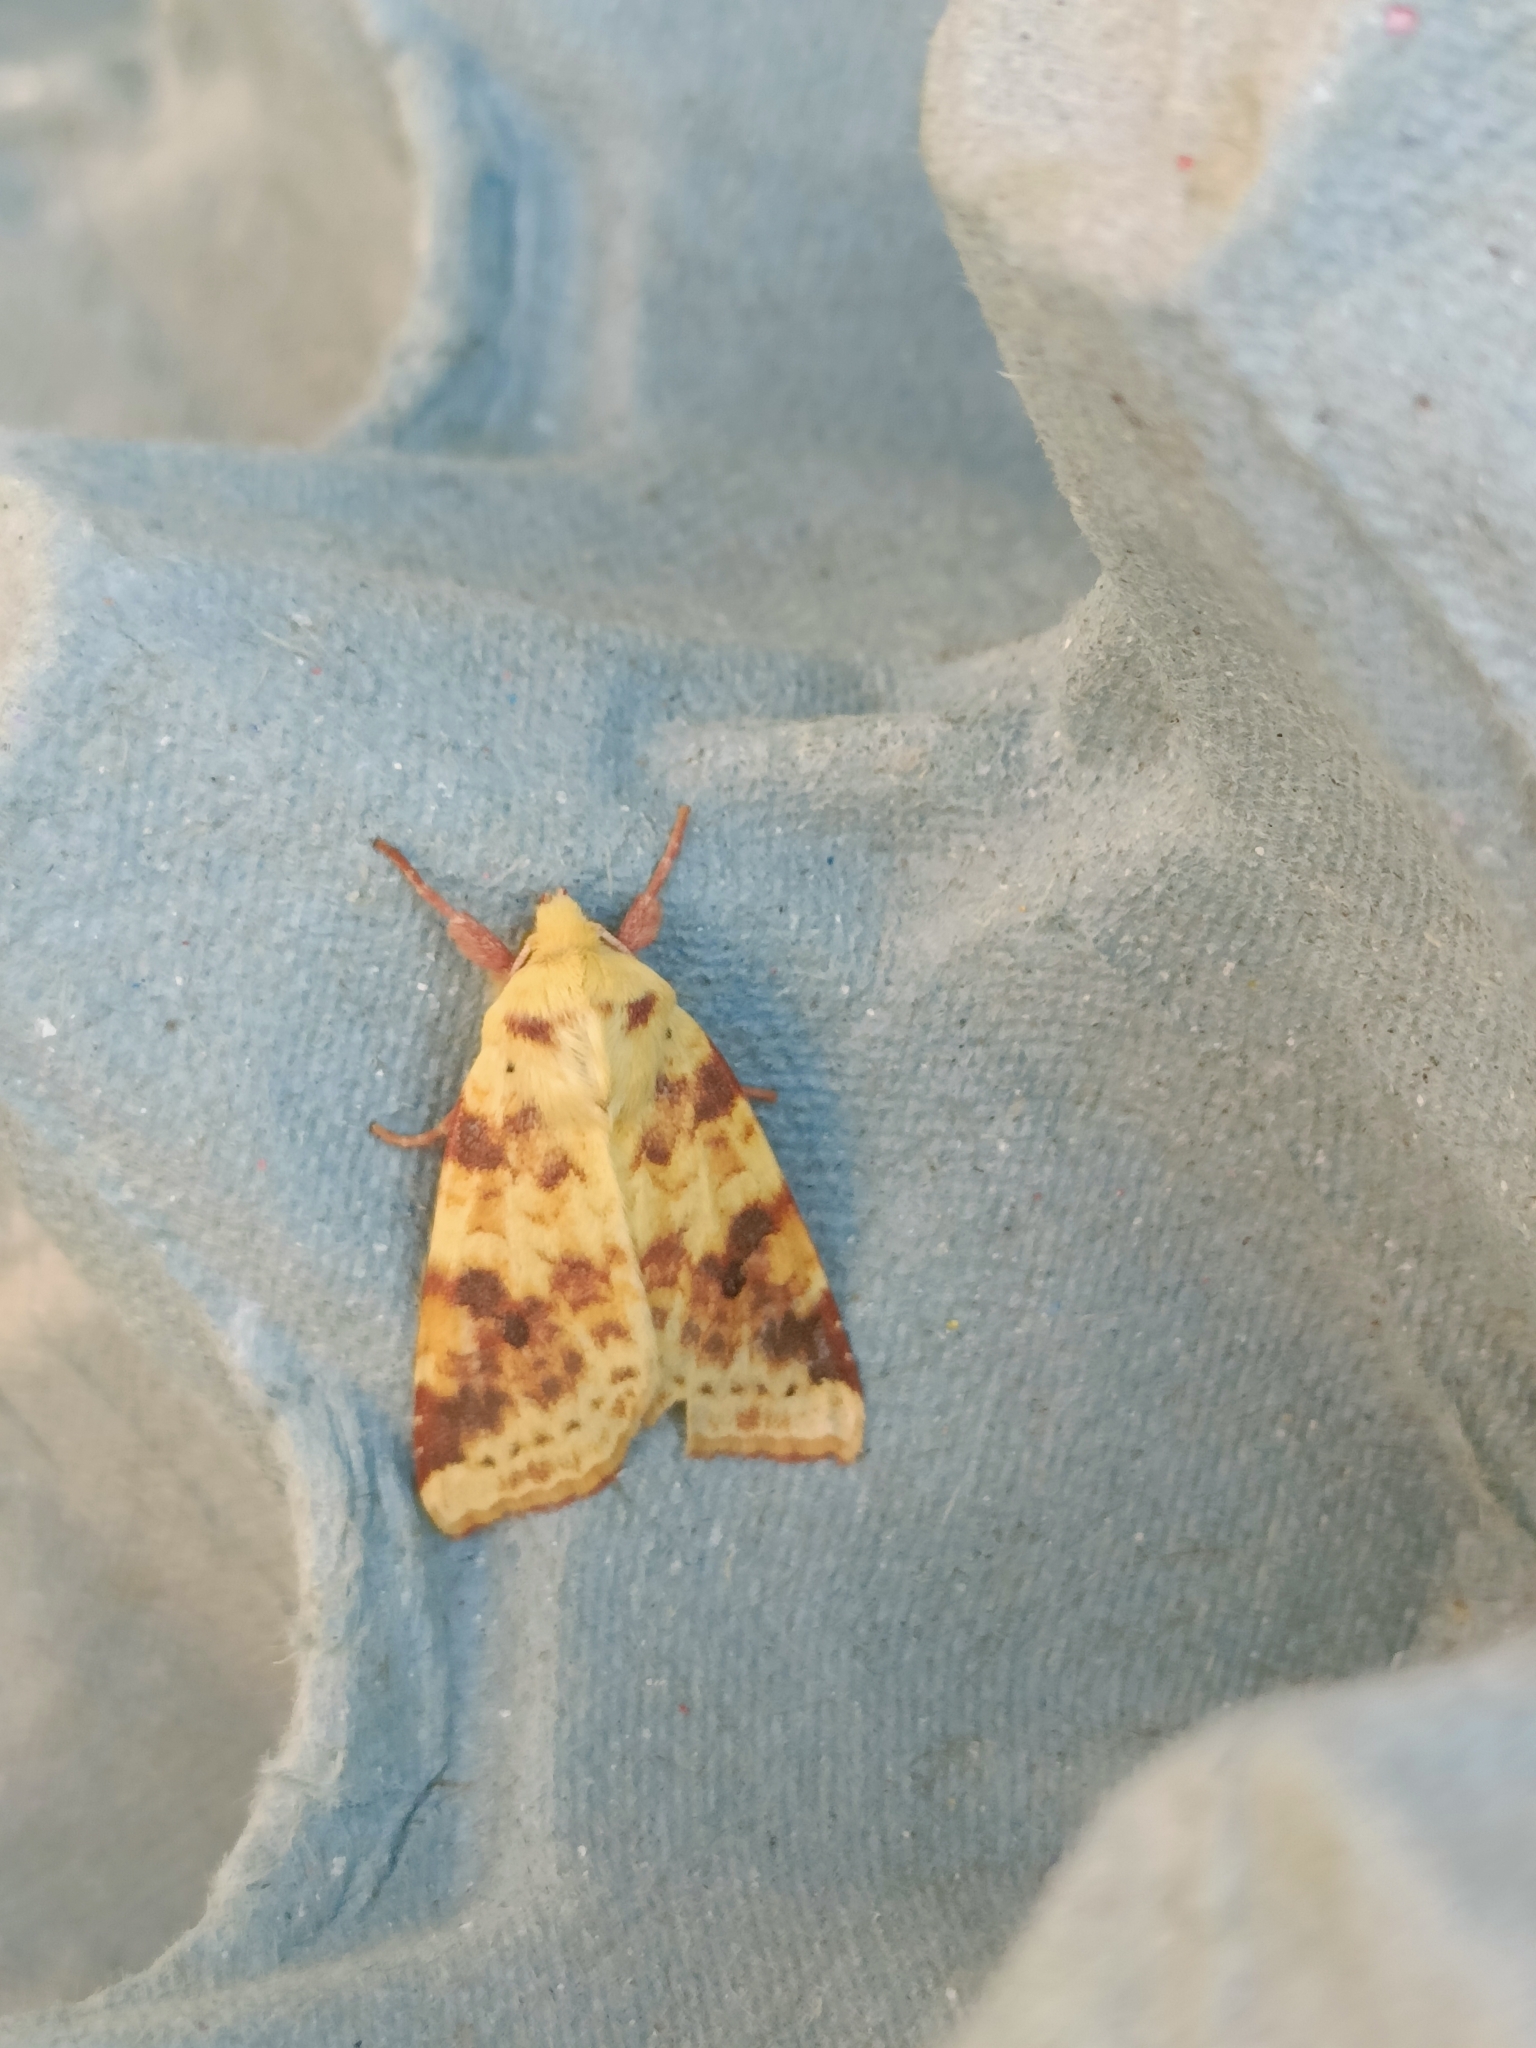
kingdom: Animalia
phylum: Arthropoda
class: Insecta
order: Lepidoptera
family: Noctuidae
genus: Xanthia
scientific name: Xanthia icteritia
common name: The sallow
